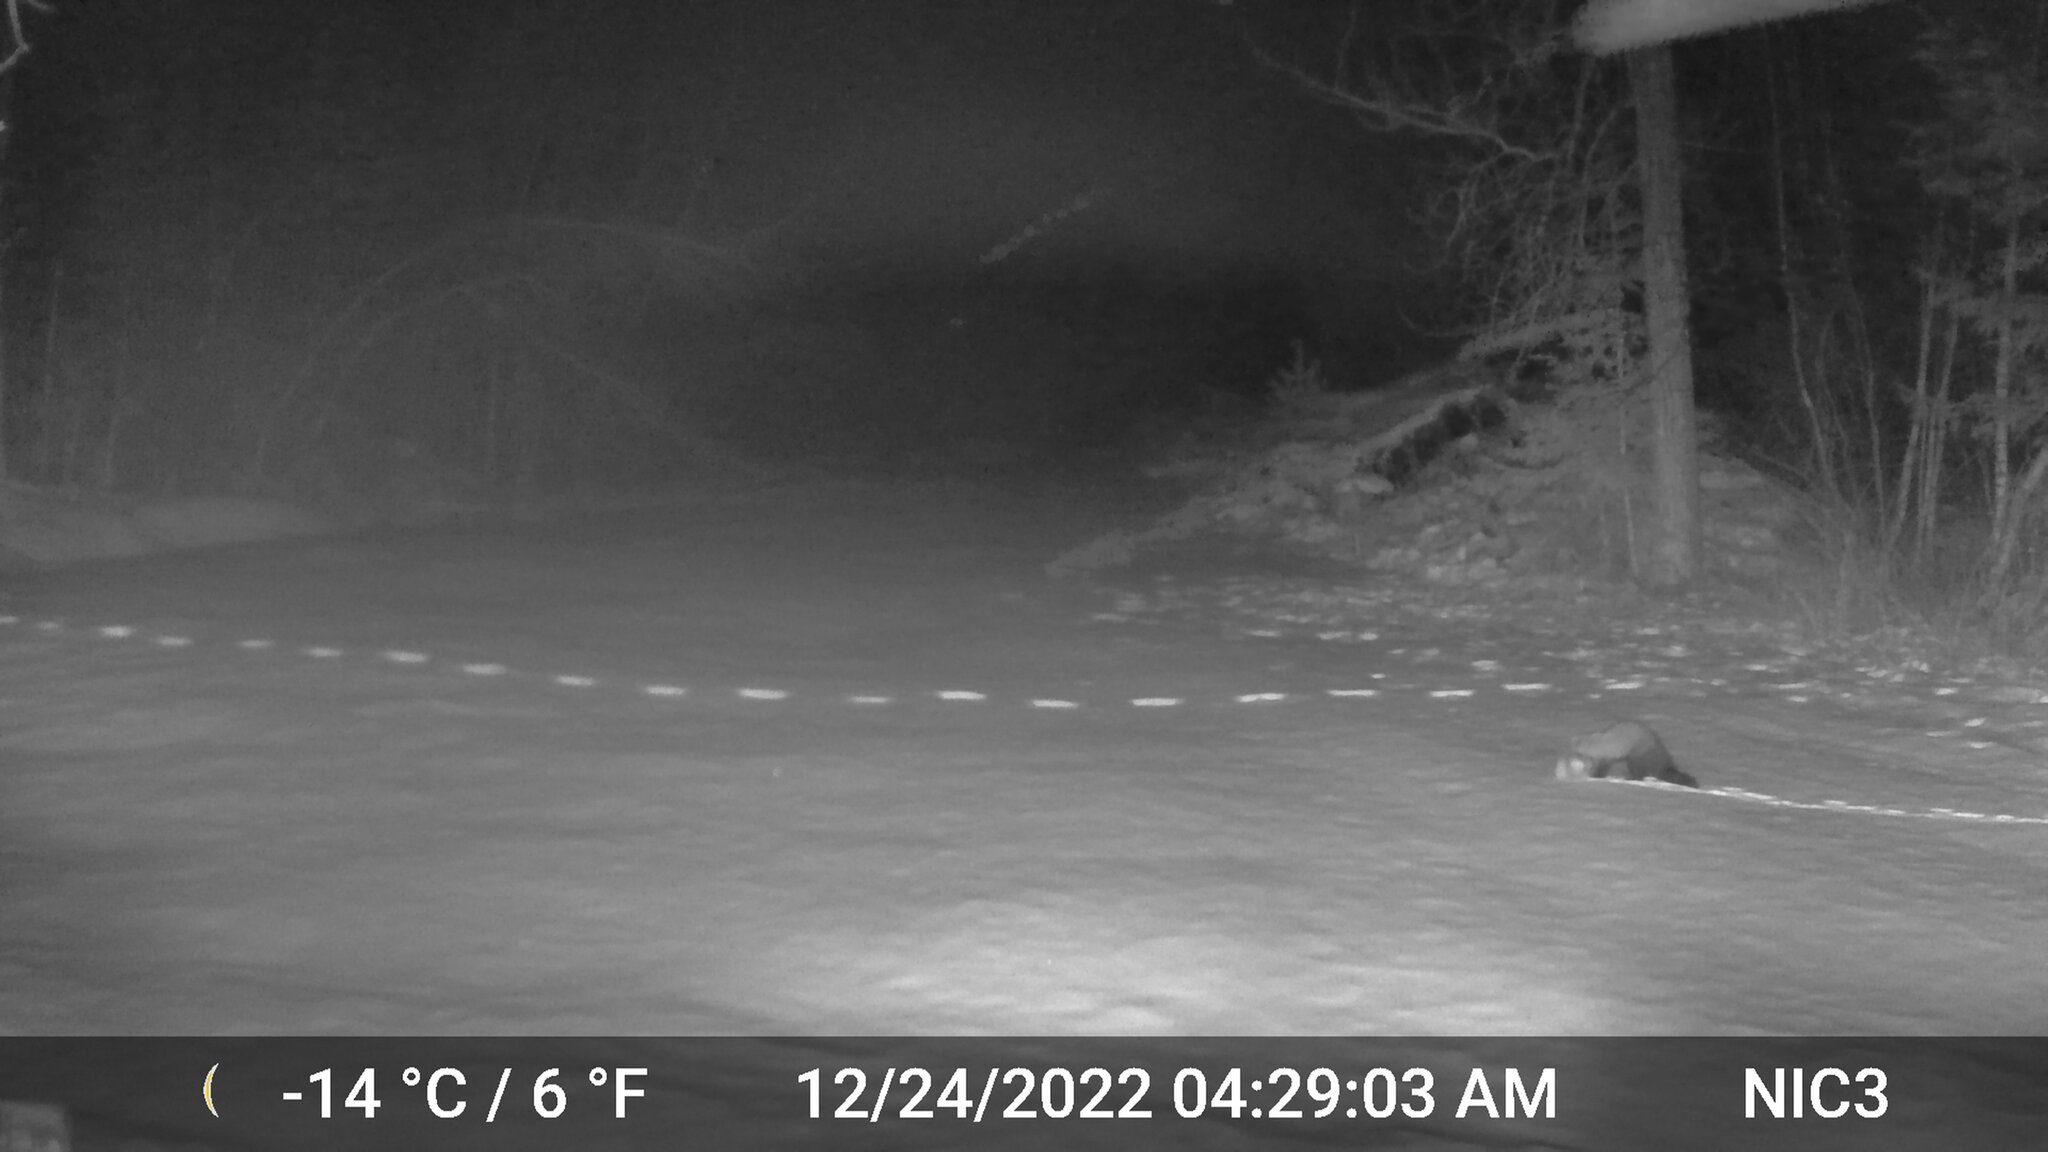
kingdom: Animalia
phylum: Chordata
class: Mammalia
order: Carnivora
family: Mustelidae
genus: Pekania
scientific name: Pekania pennanti
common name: Fisher
